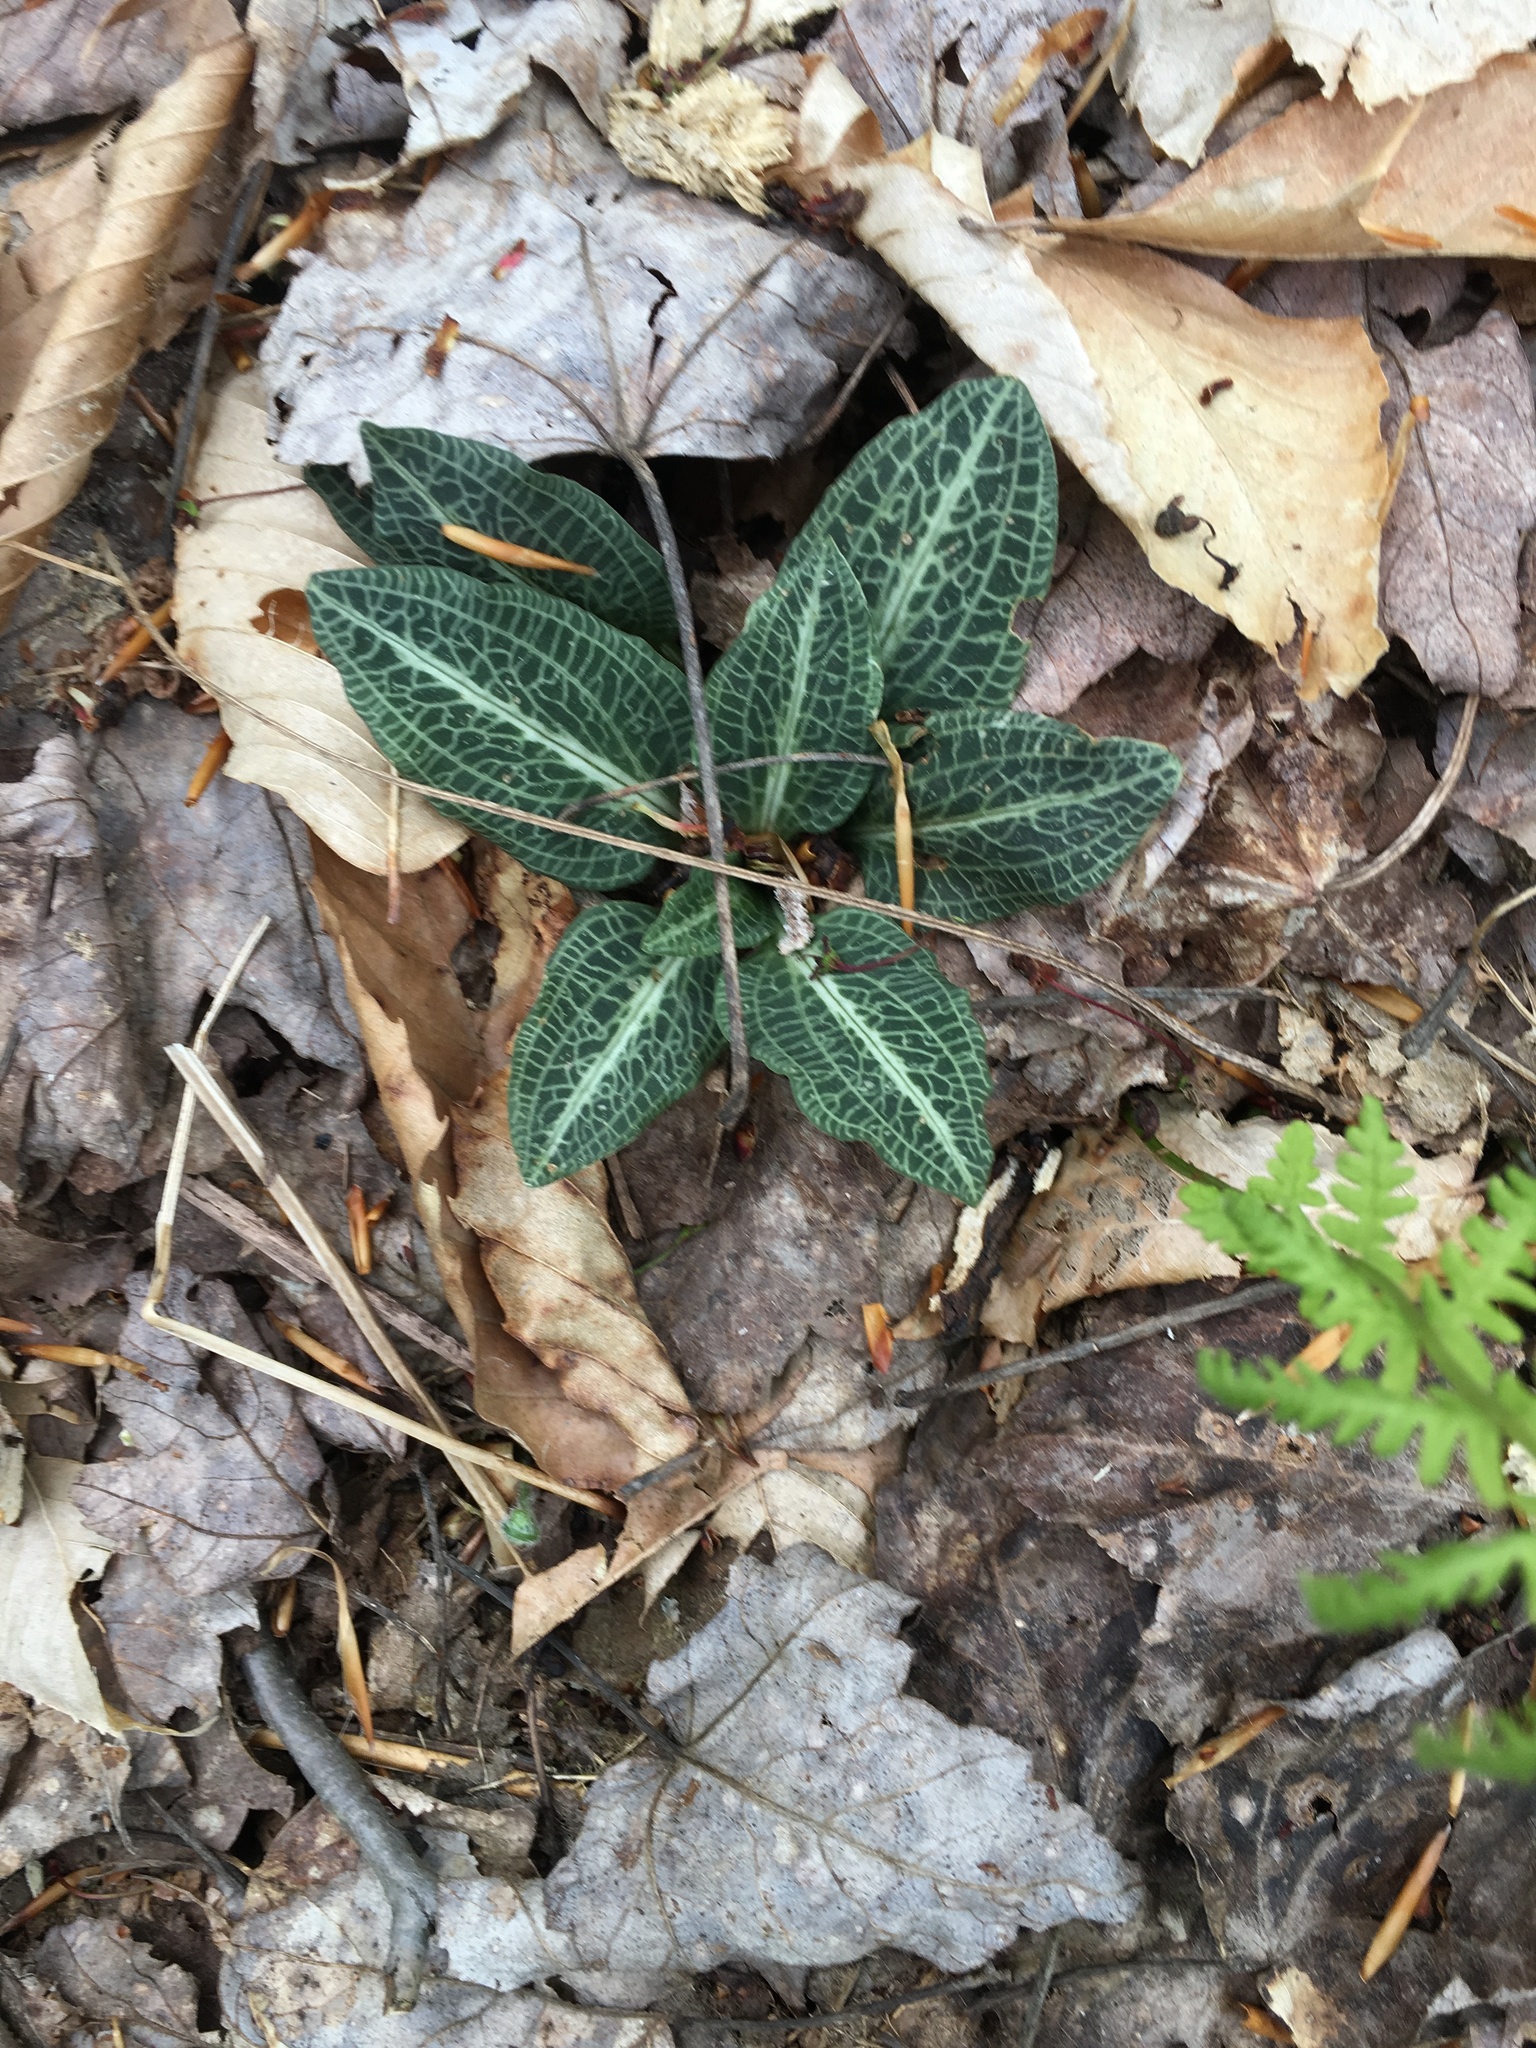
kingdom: Plantae
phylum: Tracheophyta
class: Liliopsida
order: Asparagales
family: Orchidaceae
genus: Goodyera
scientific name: Goodyera pubescens
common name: Downy rattlesnake-plantain
